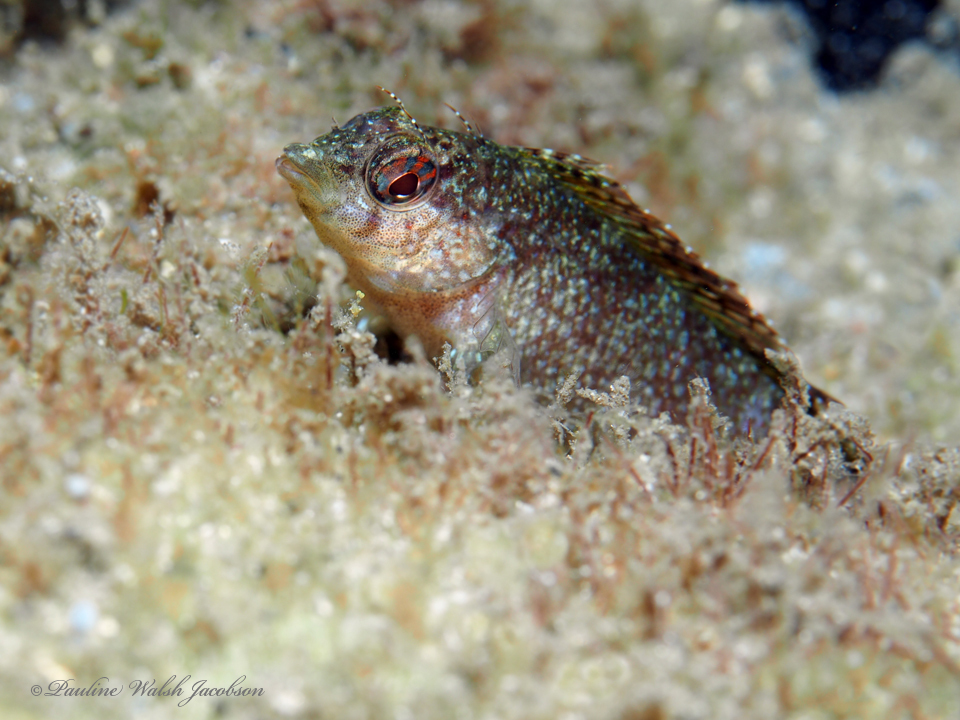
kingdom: Animalia
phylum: Chordata
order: Perciformes
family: Labrisomidae
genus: Malacoctenus
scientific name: Malacoctenus macropus
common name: Rosy blenny
